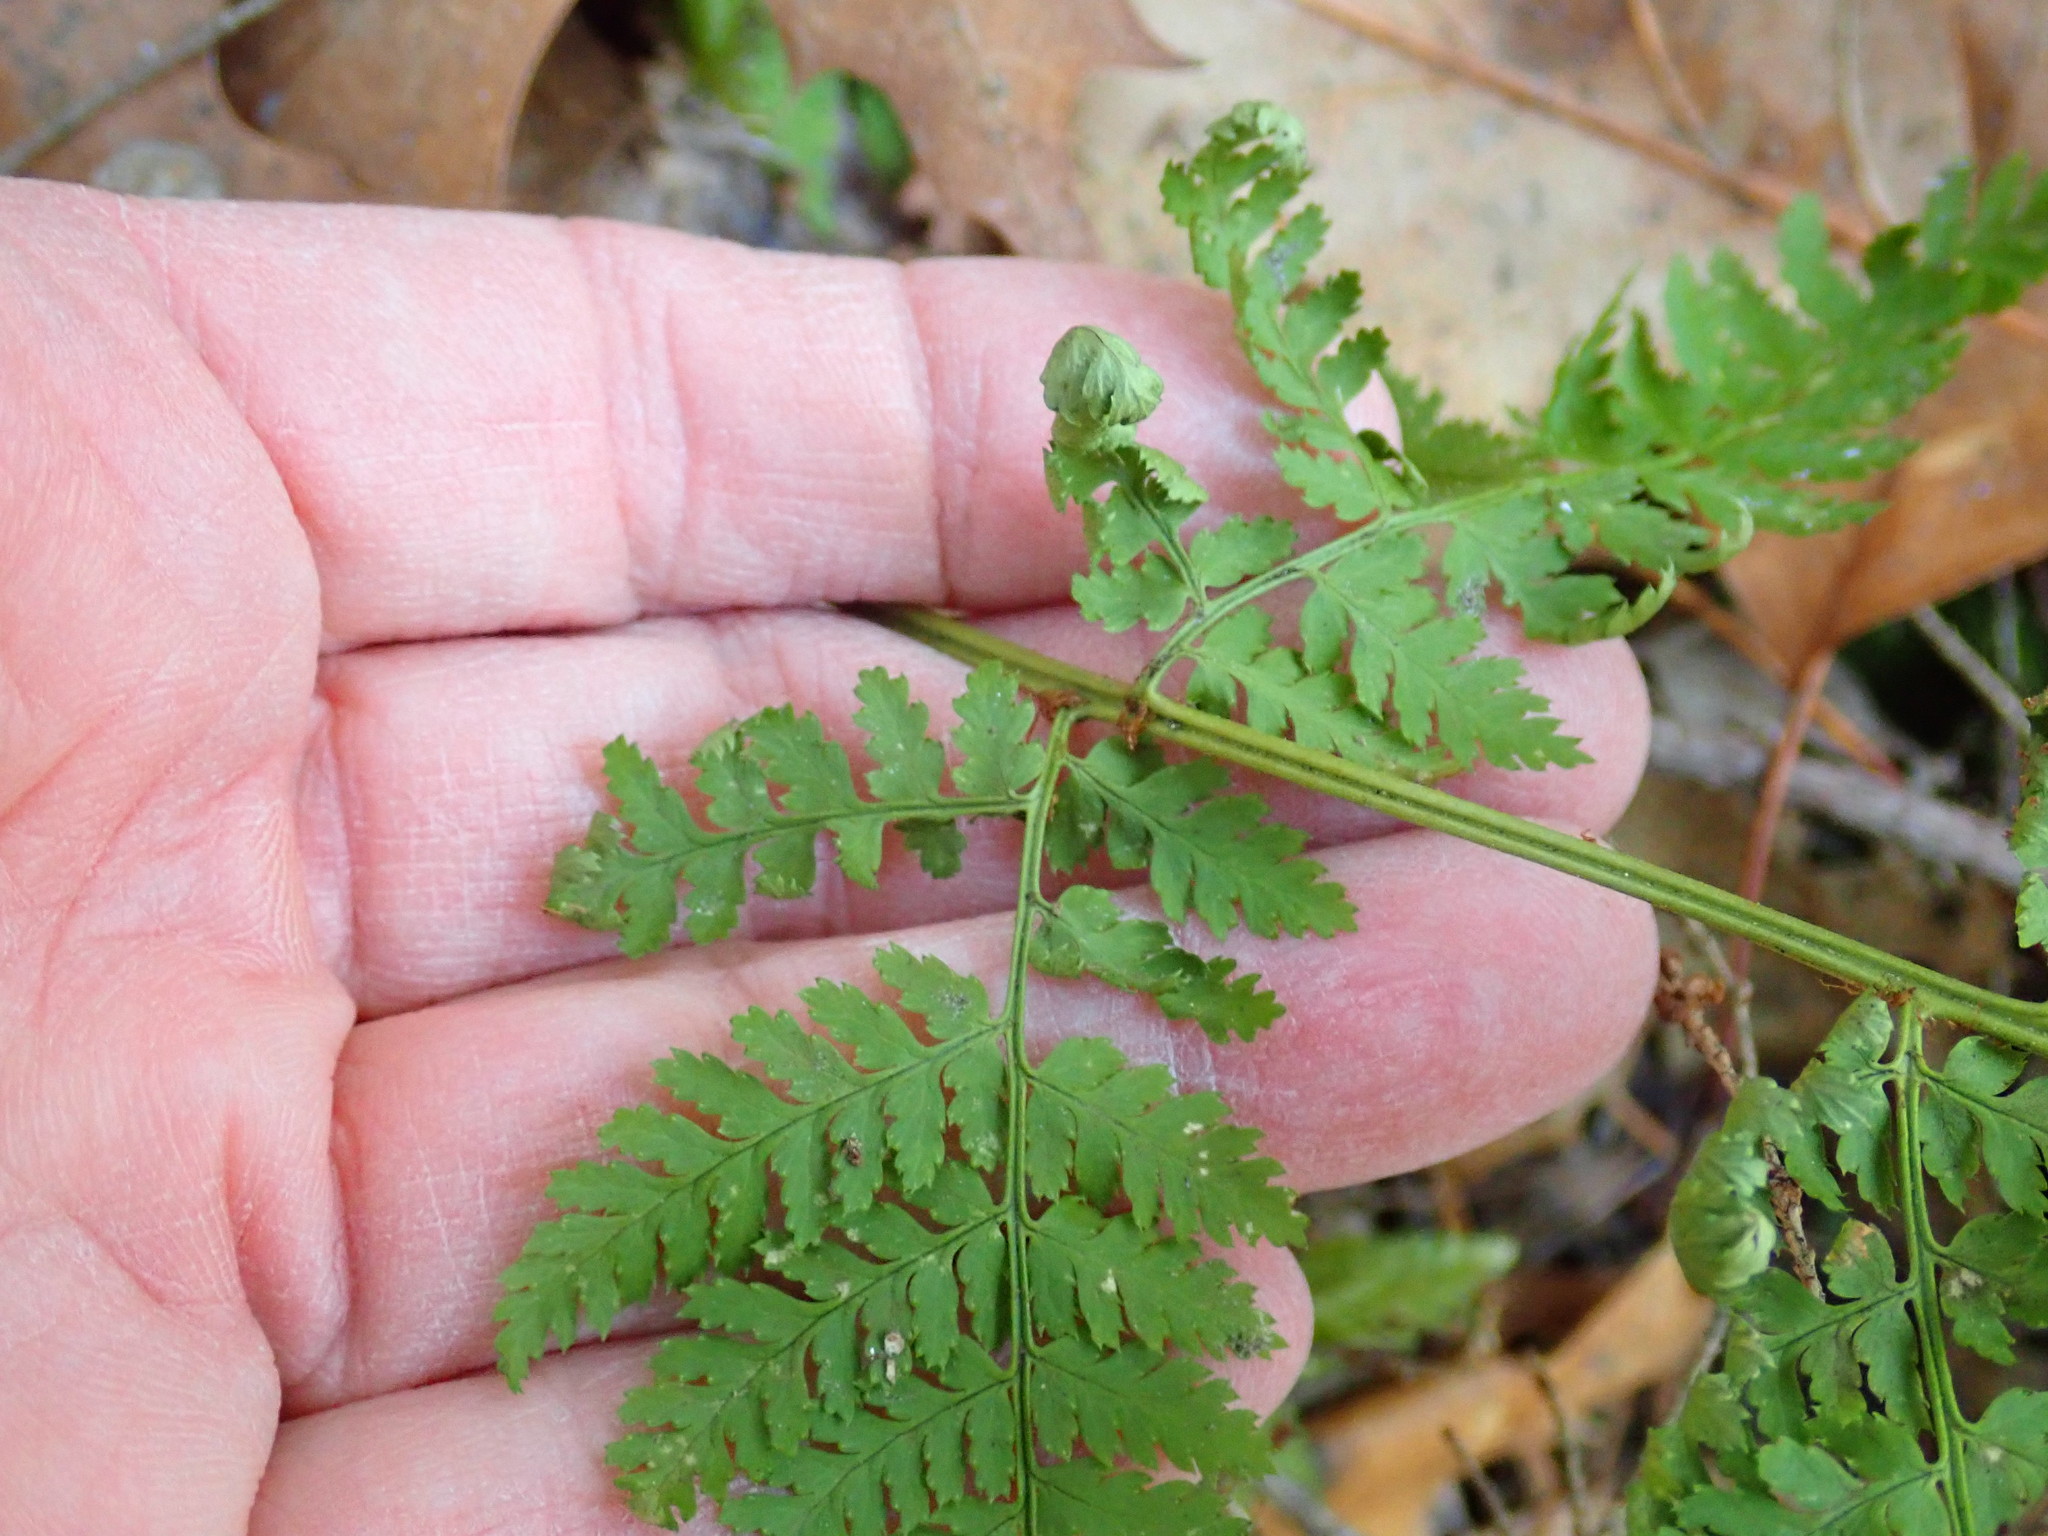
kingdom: Plantae
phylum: Tracheophyta
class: Polypodiopsida
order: Polypodiales
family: Dryopteridaceae
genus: Dryopteris
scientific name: Dryopteris intermedia
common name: Evergreen wood fern
